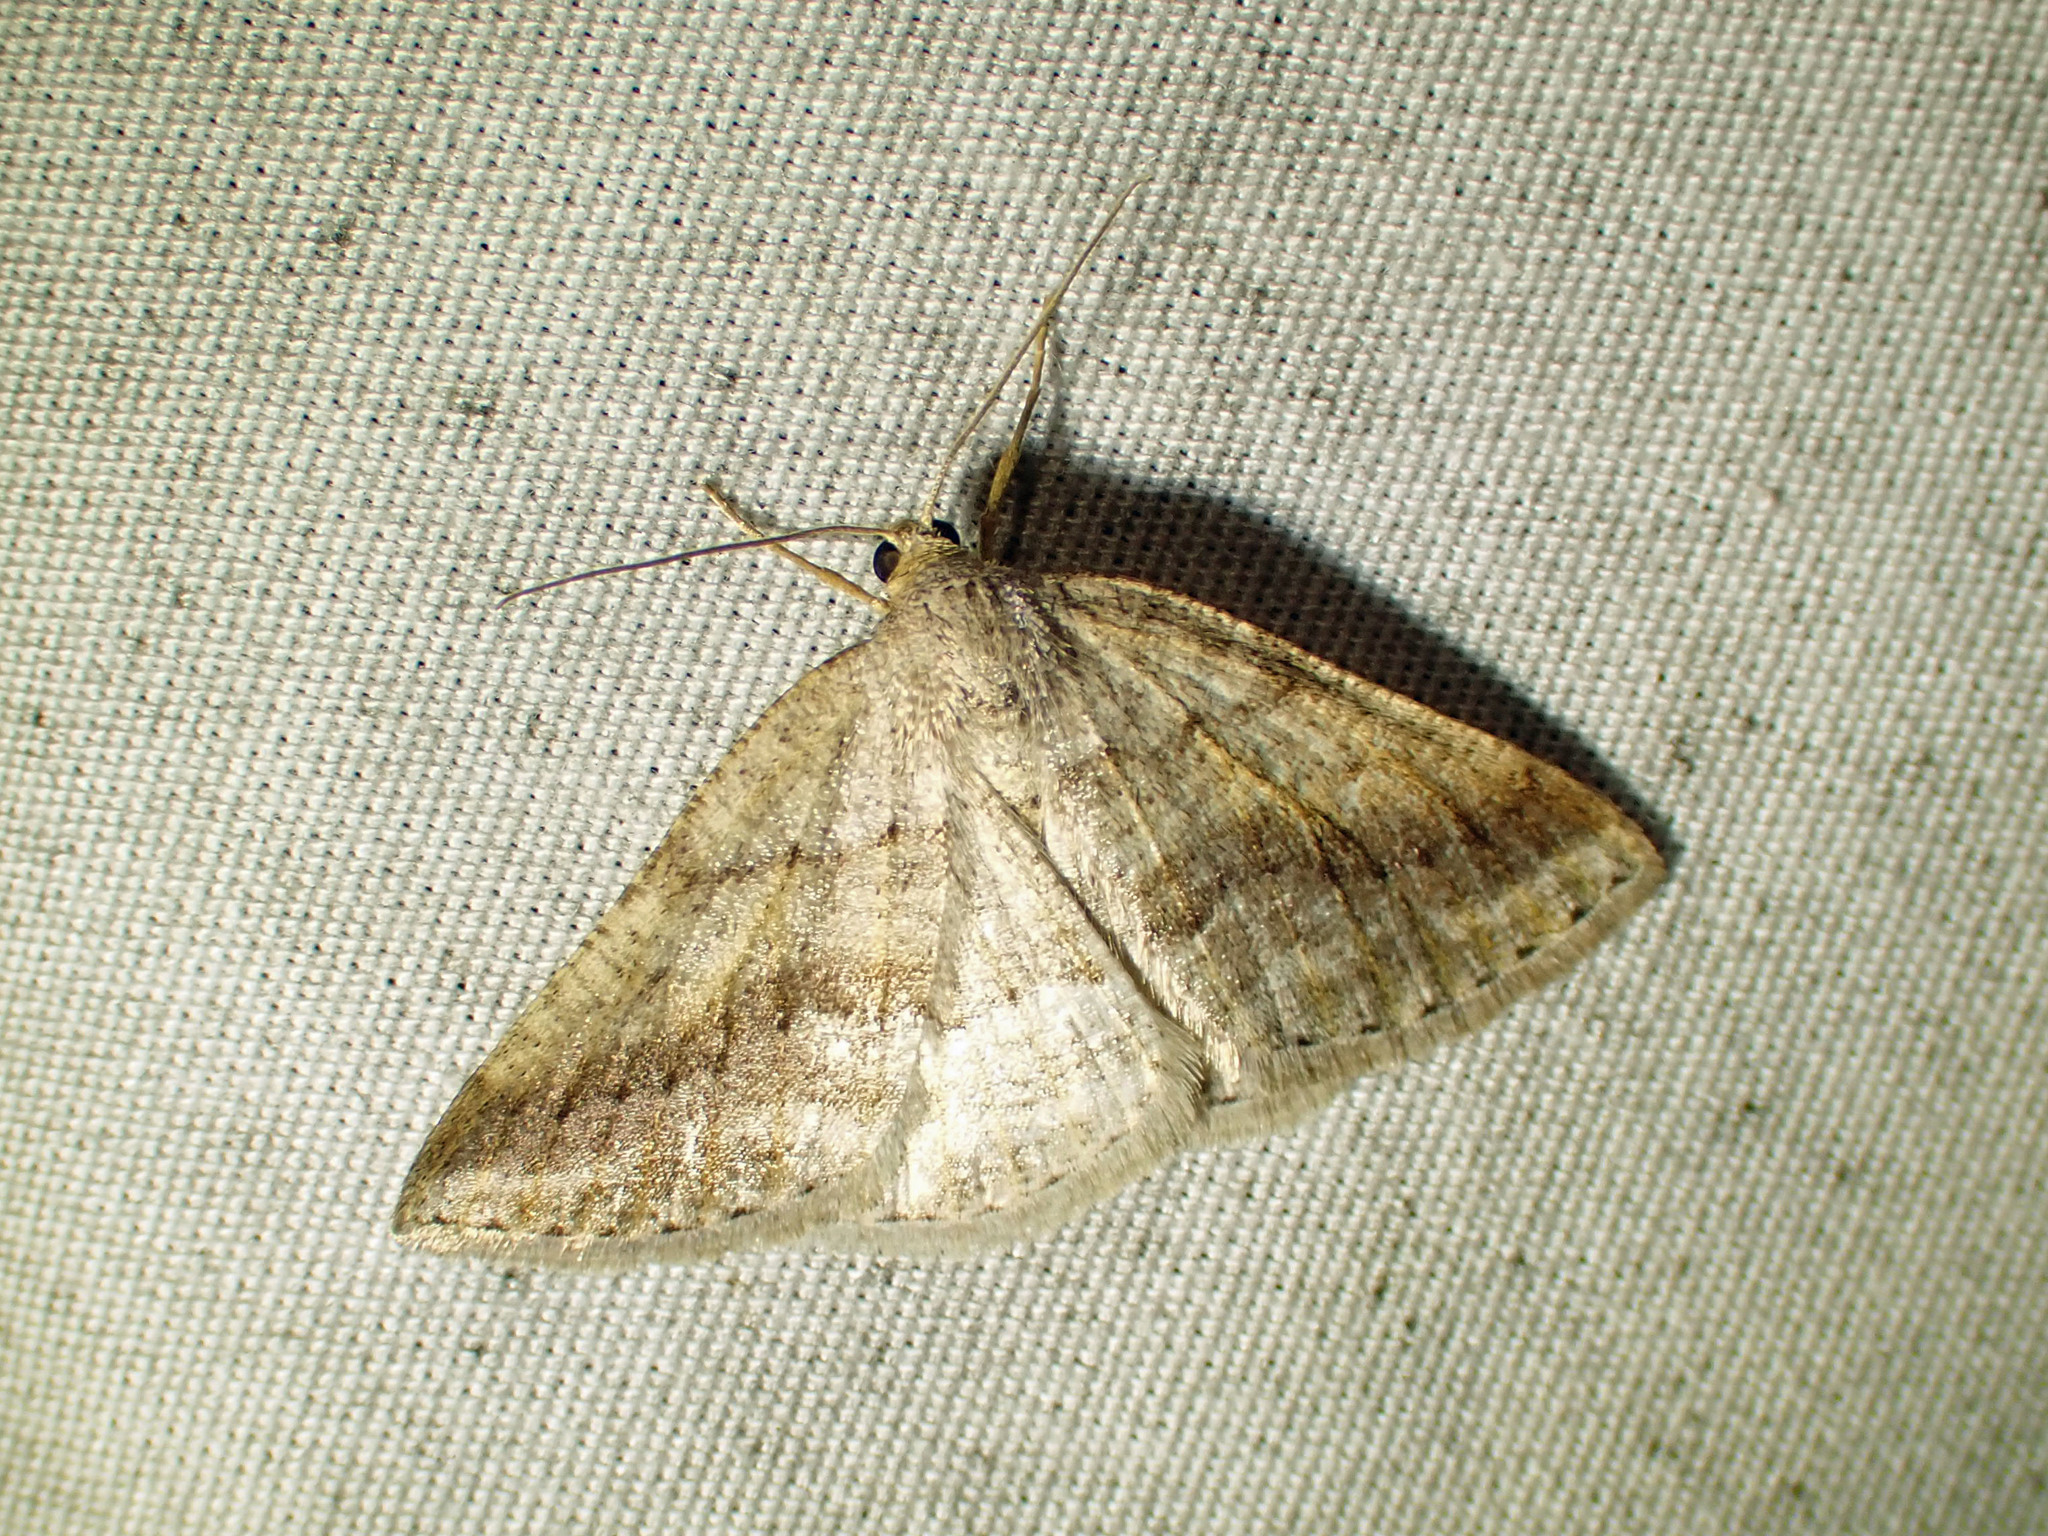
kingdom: Animalia
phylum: Arthropoda
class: Insecta
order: Lepidoptera
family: Geometridae
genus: Tacparia
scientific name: Tacparia detersata
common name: Pale alder moth
